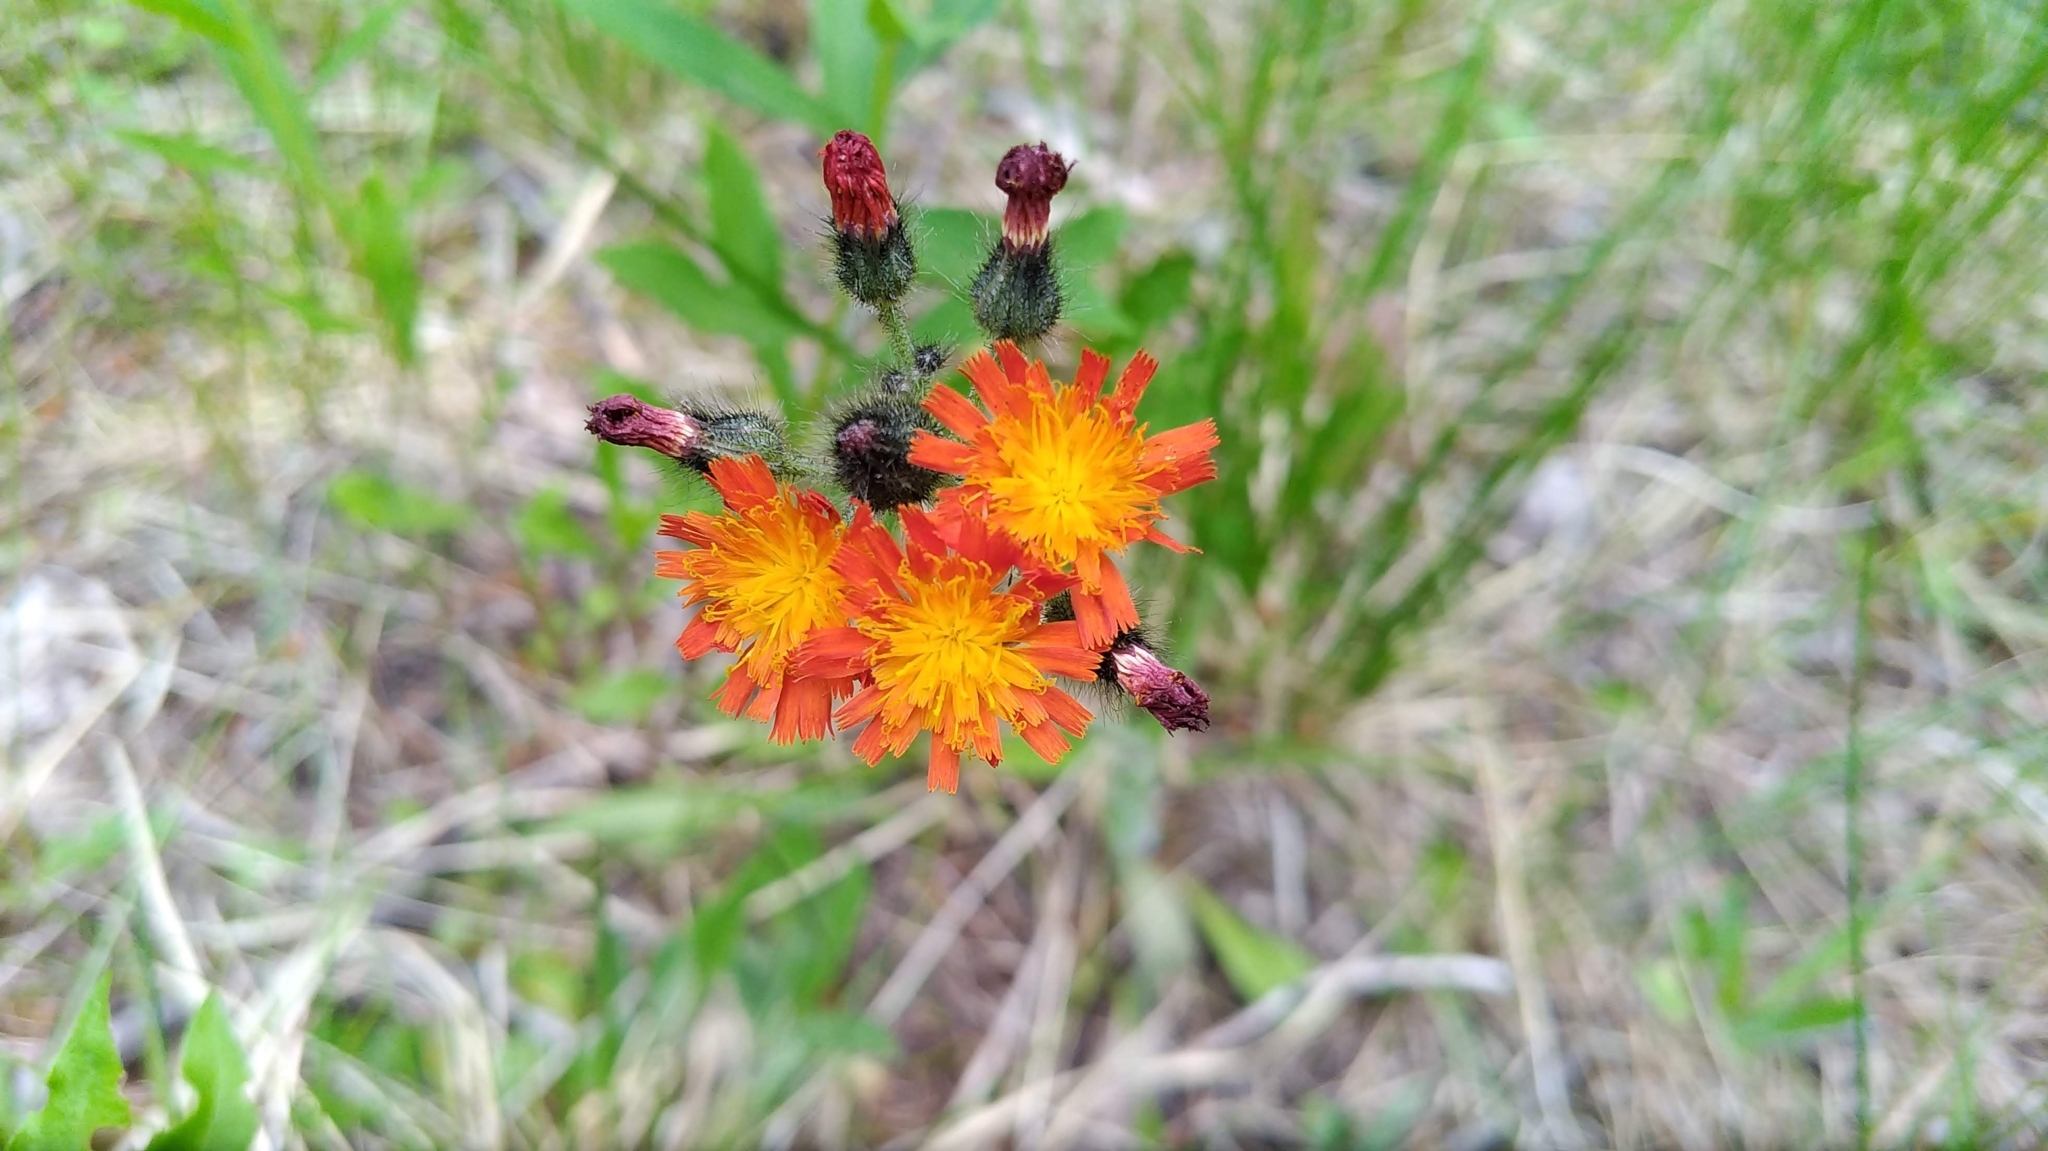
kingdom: Plantae
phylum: Tracheophyta
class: Magnoliopsida
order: Asterales
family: Asteraceae
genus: Pilosella
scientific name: Pilosella aurantiaca
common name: Fox-and-cubs
